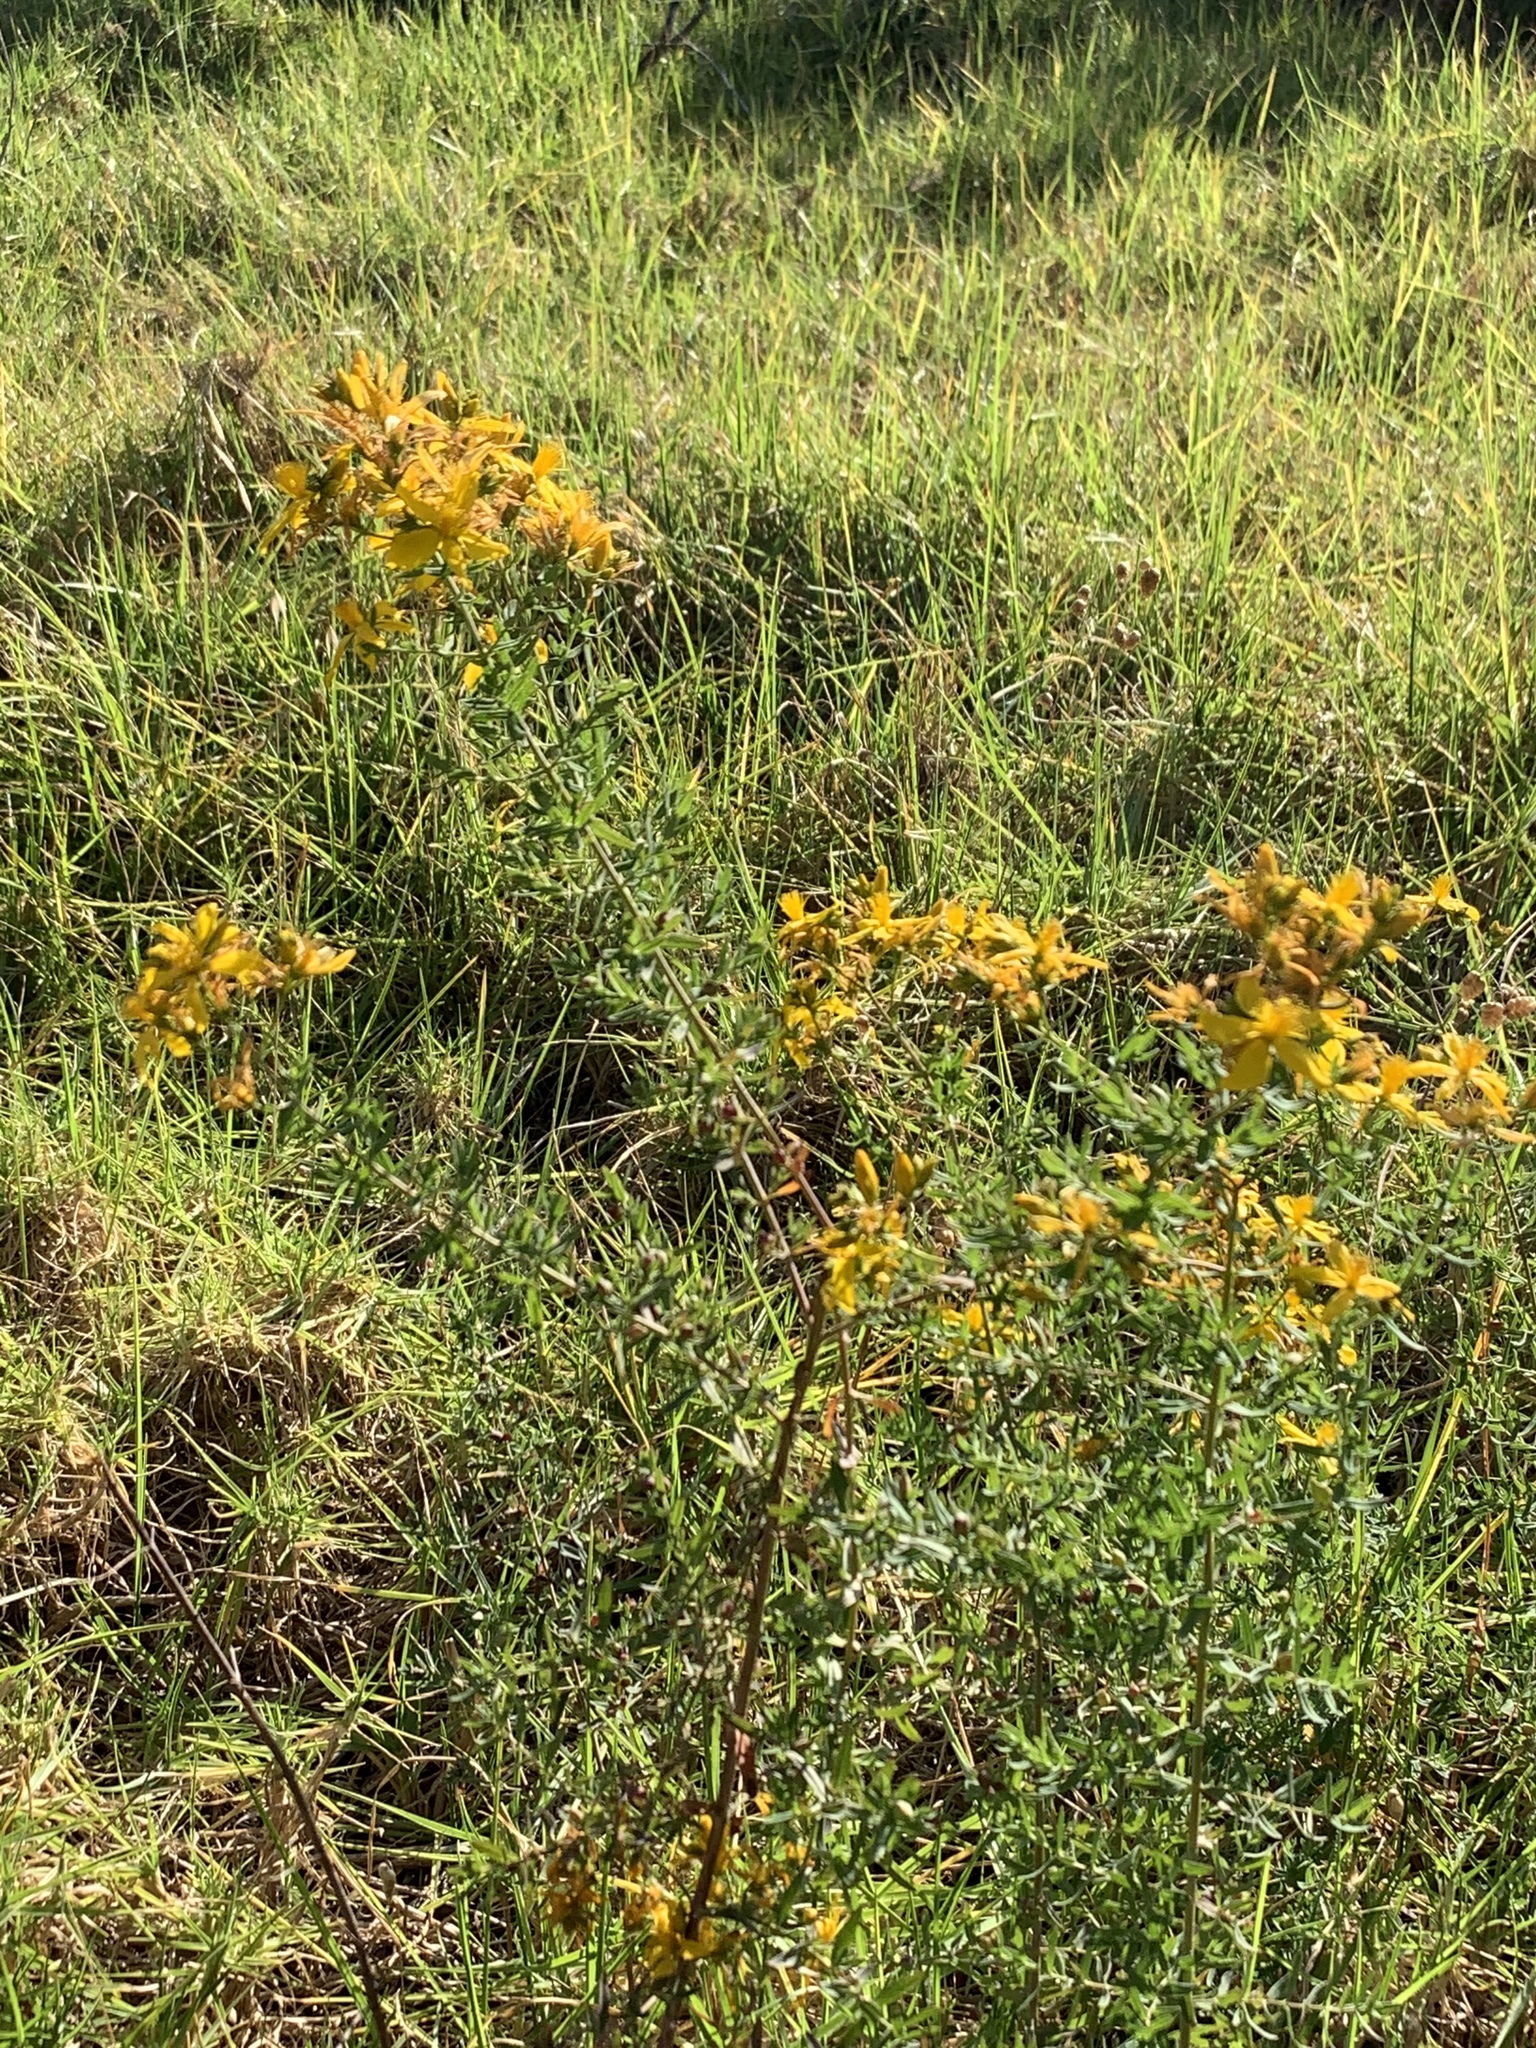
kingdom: Plantae
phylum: Tracheophyta
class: Magnoliopsida
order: Malpighiales
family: Hypericaceae
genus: Hypericum
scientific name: Hypericum perforatum
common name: Common st. johnswort
